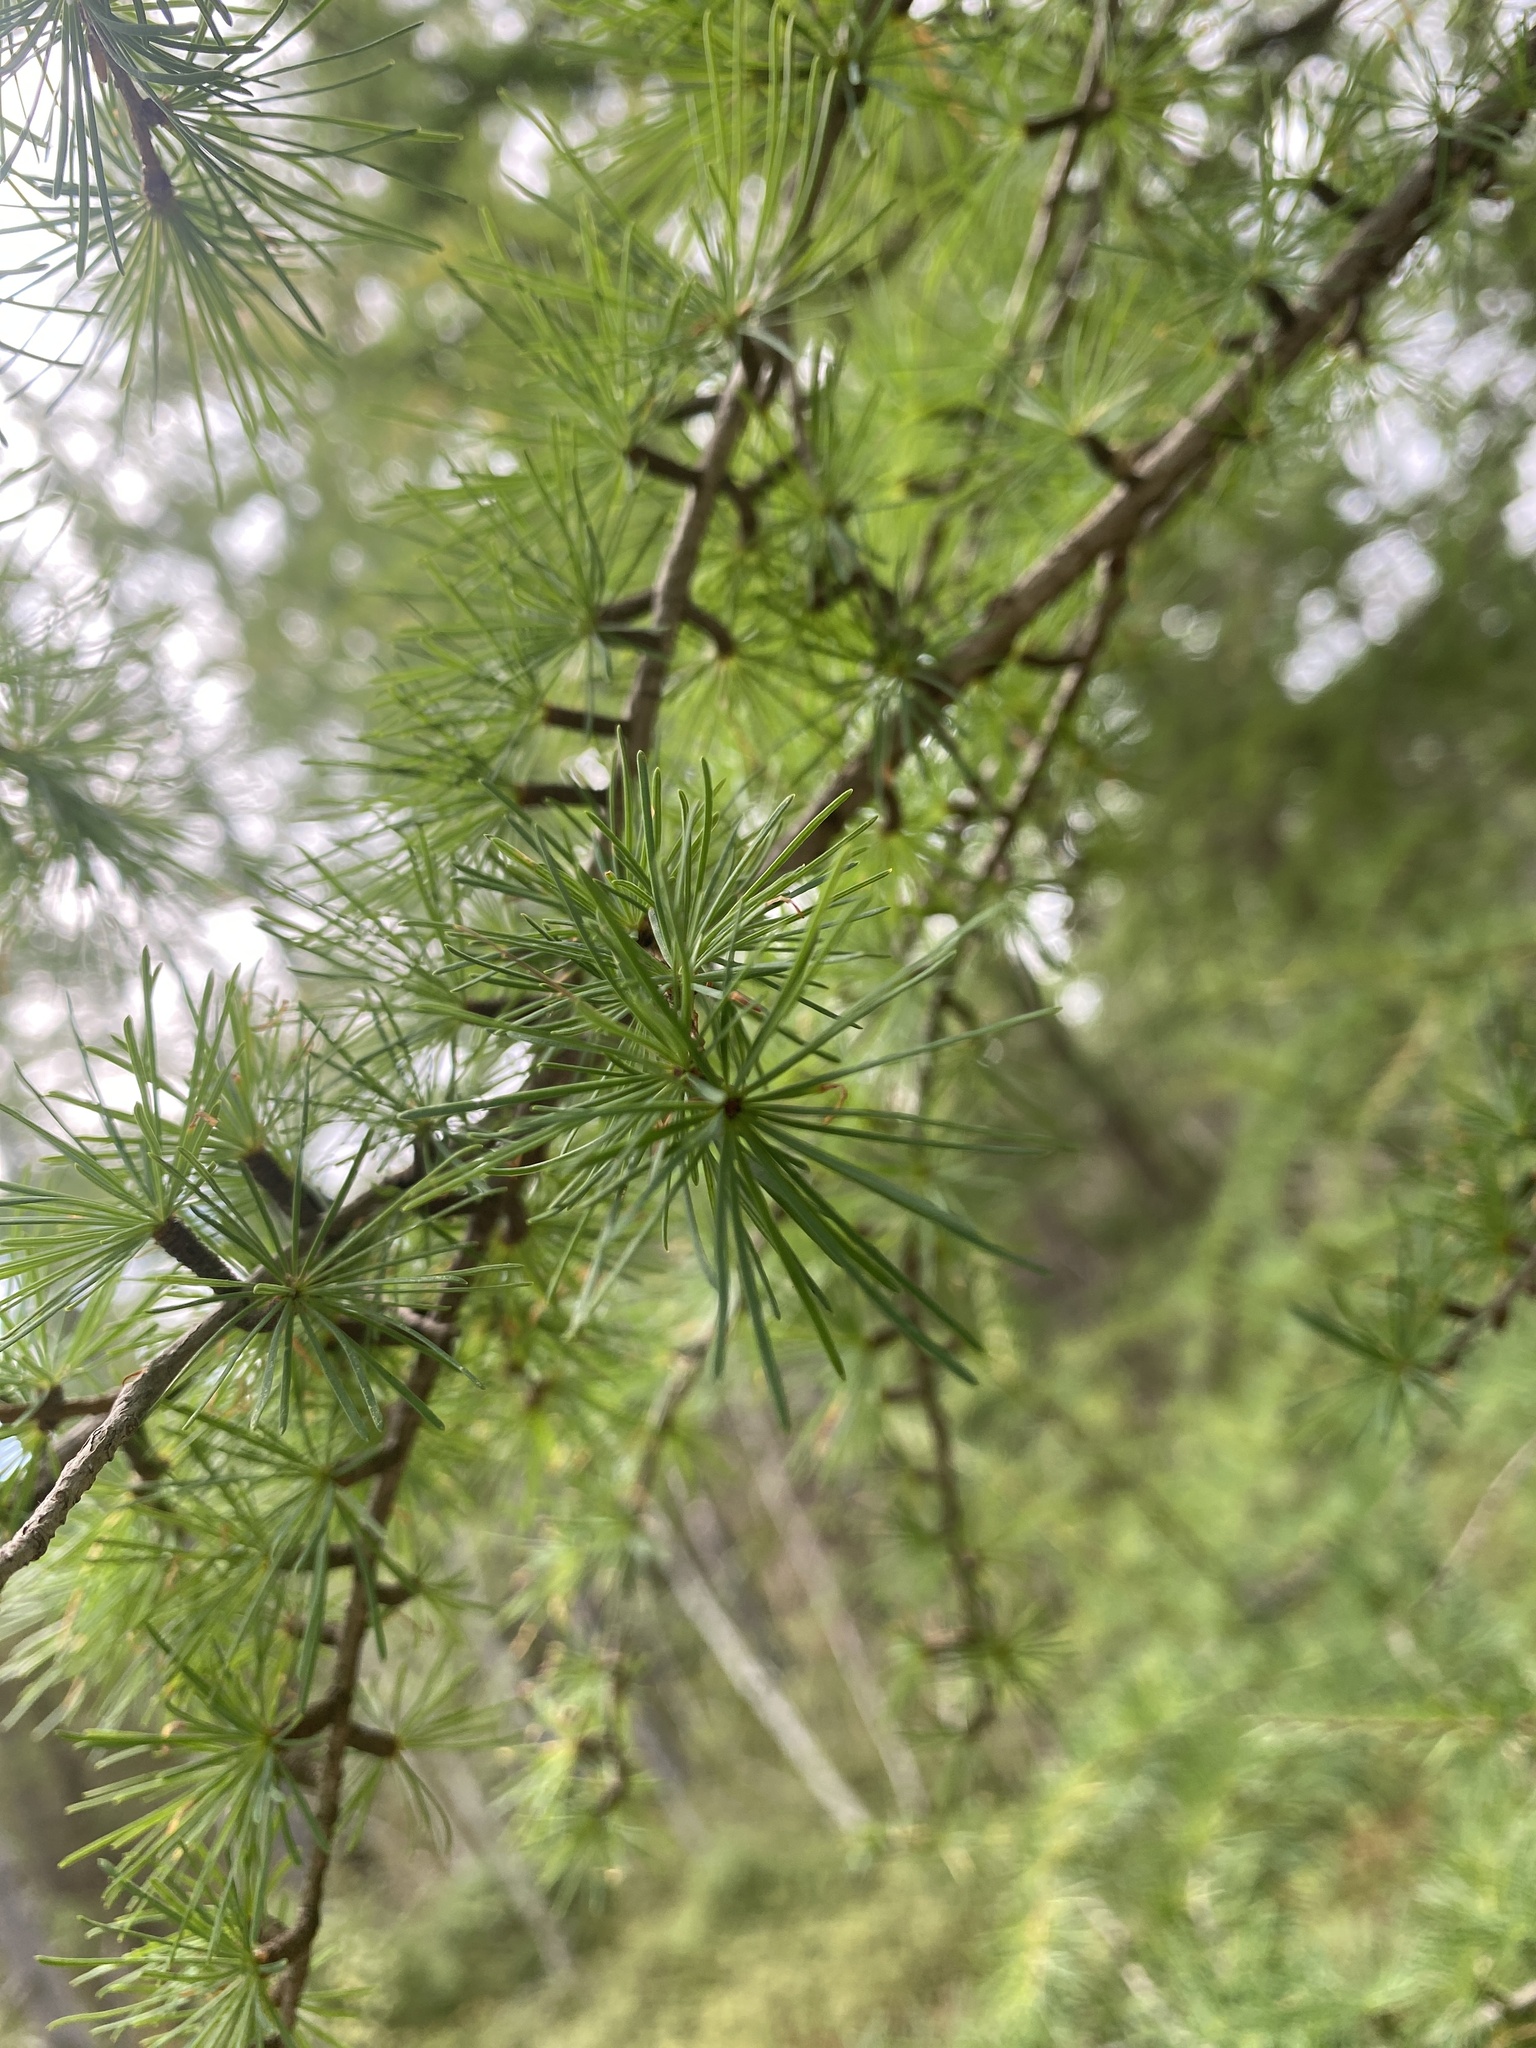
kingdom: Plantae
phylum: Tracheophyta
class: Pinopsida
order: Pinales
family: Pinaceae
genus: Larix
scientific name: Larix laricina
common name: American larch
